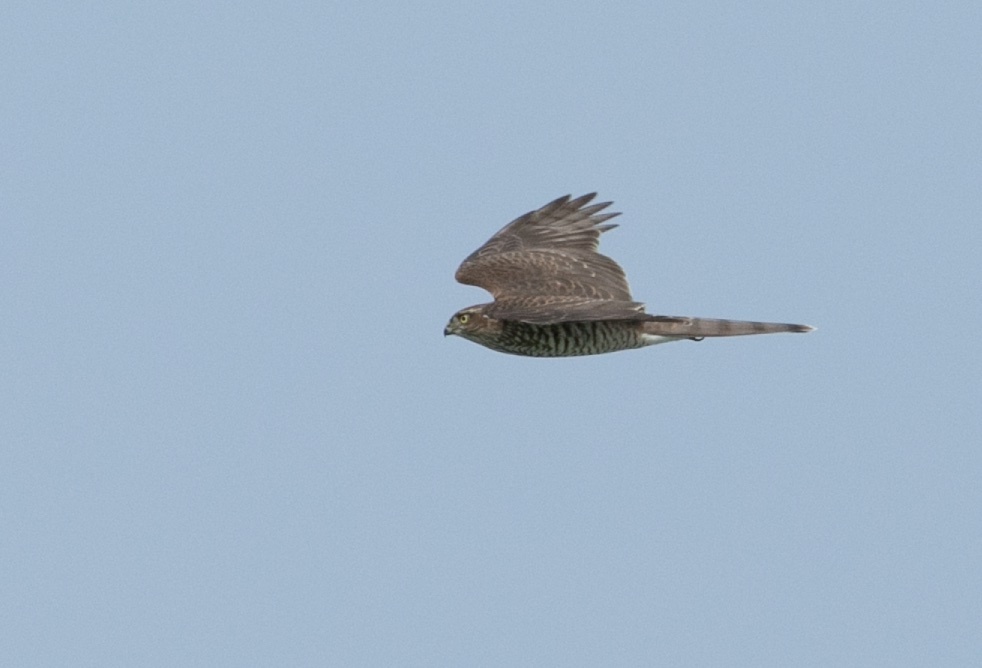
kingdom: Animalia
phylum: Chordata
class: Aves
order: Accipitriformes
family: Accipitridae
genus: Accipiter
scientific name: Accipiter nisus
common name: Eurasian sparrowhawk
